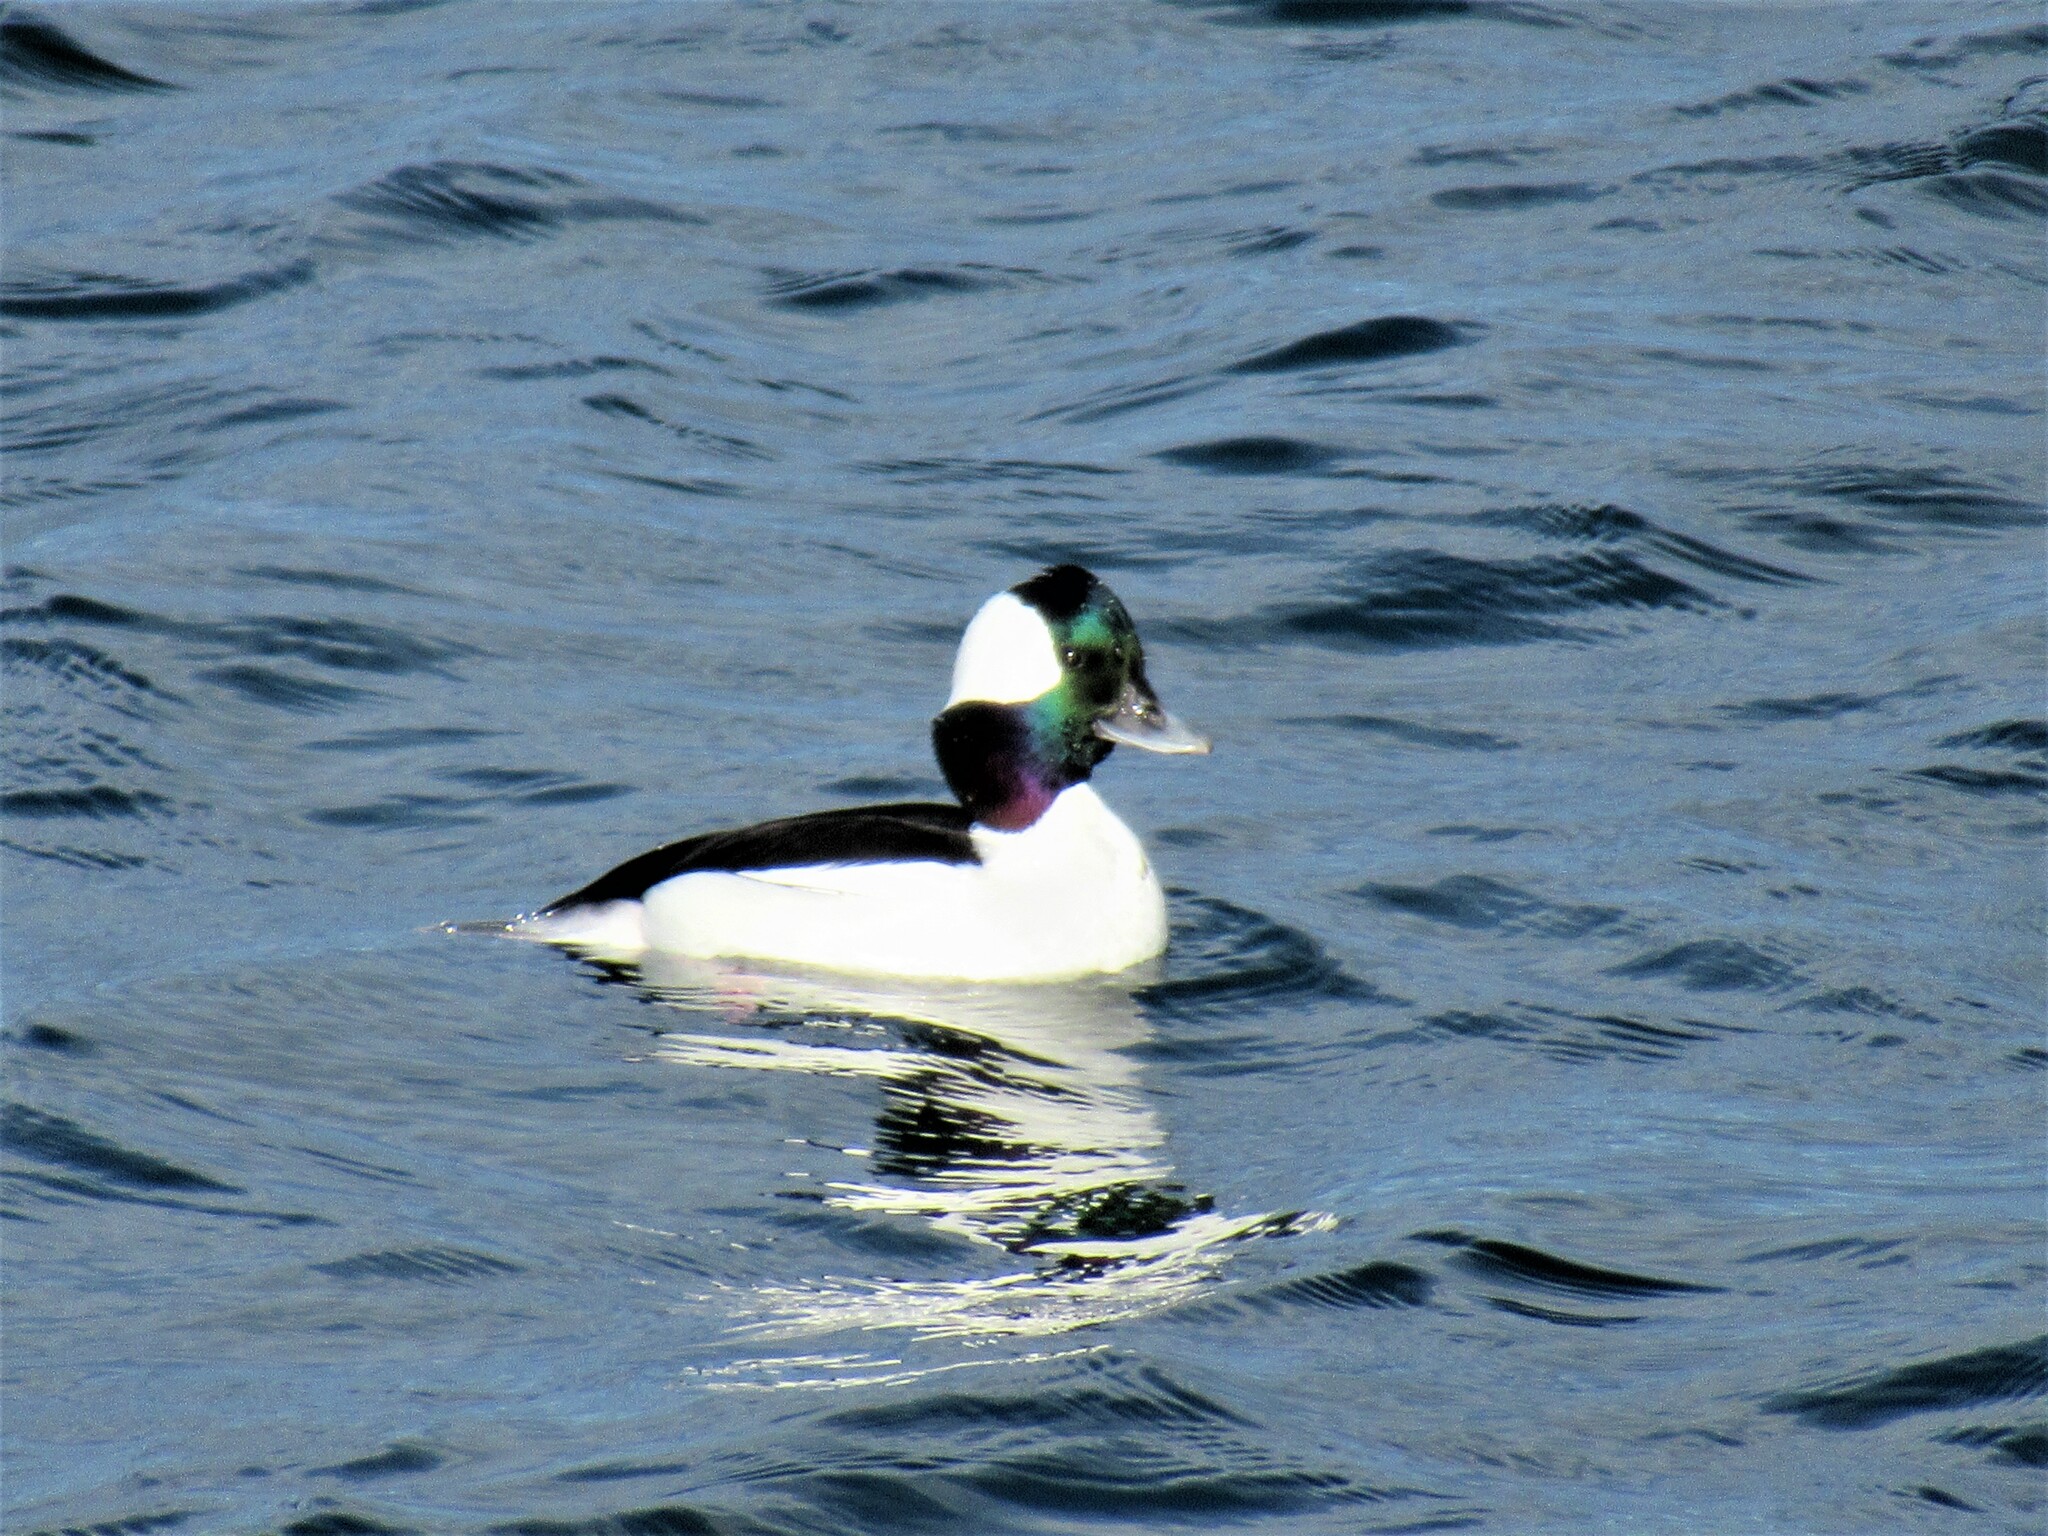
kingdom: Animalia
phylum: Chordata
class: Aves
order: Anseriformes
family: Anatidae
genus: Bucephala
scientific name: Bucephala albeola
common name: Bufflehead
